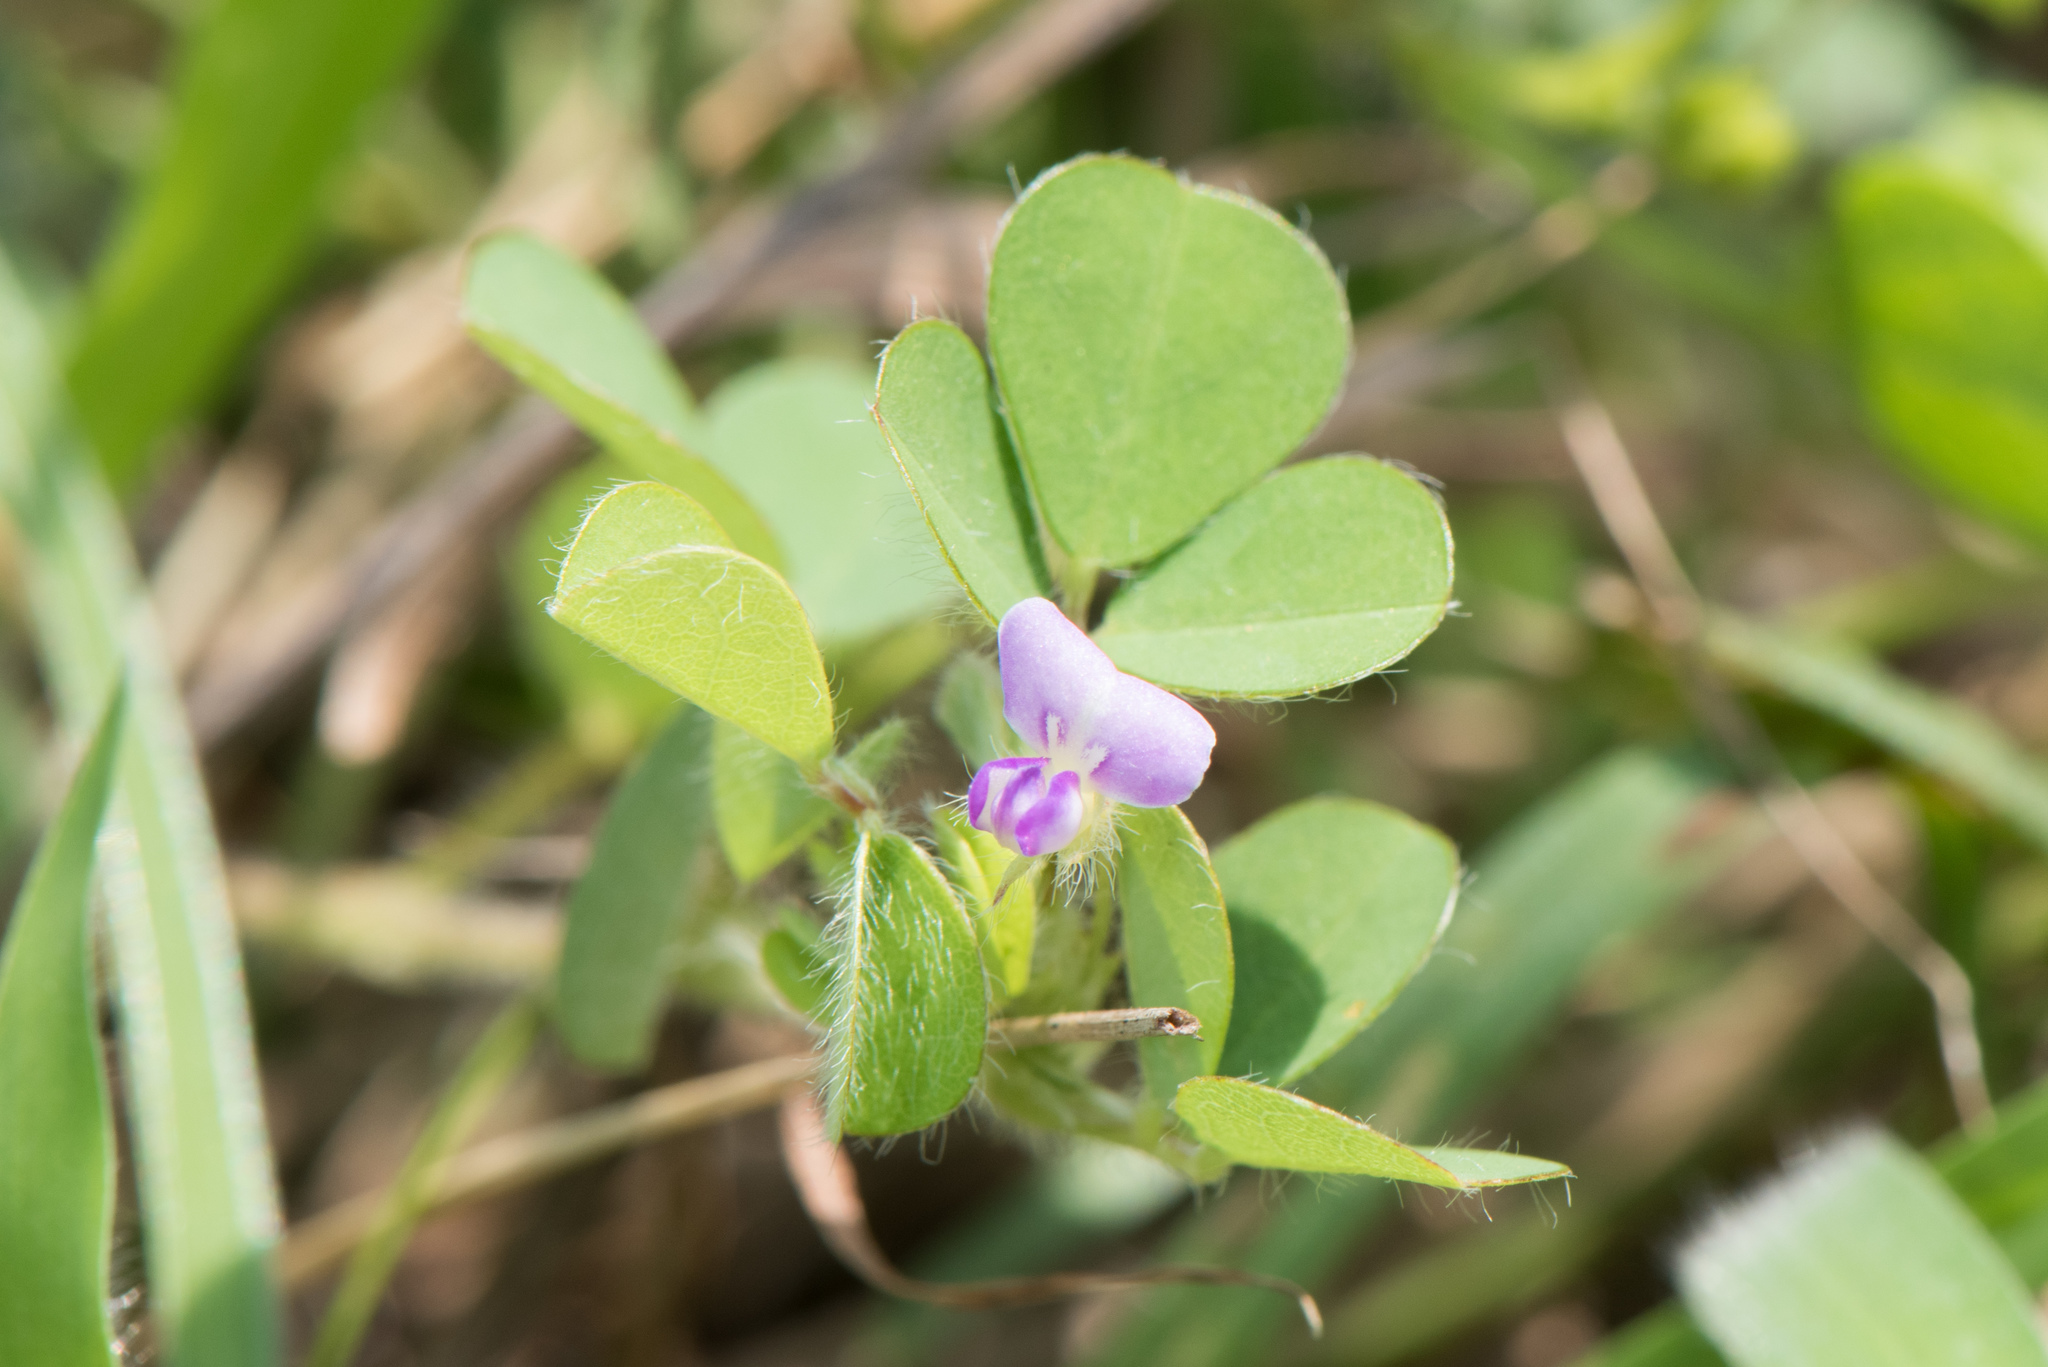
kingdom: Plantae
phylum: Tracheophyta
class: Magnoliopsida
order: Fabales
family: Fabaceae
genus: Grona
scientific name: Grona triflora
